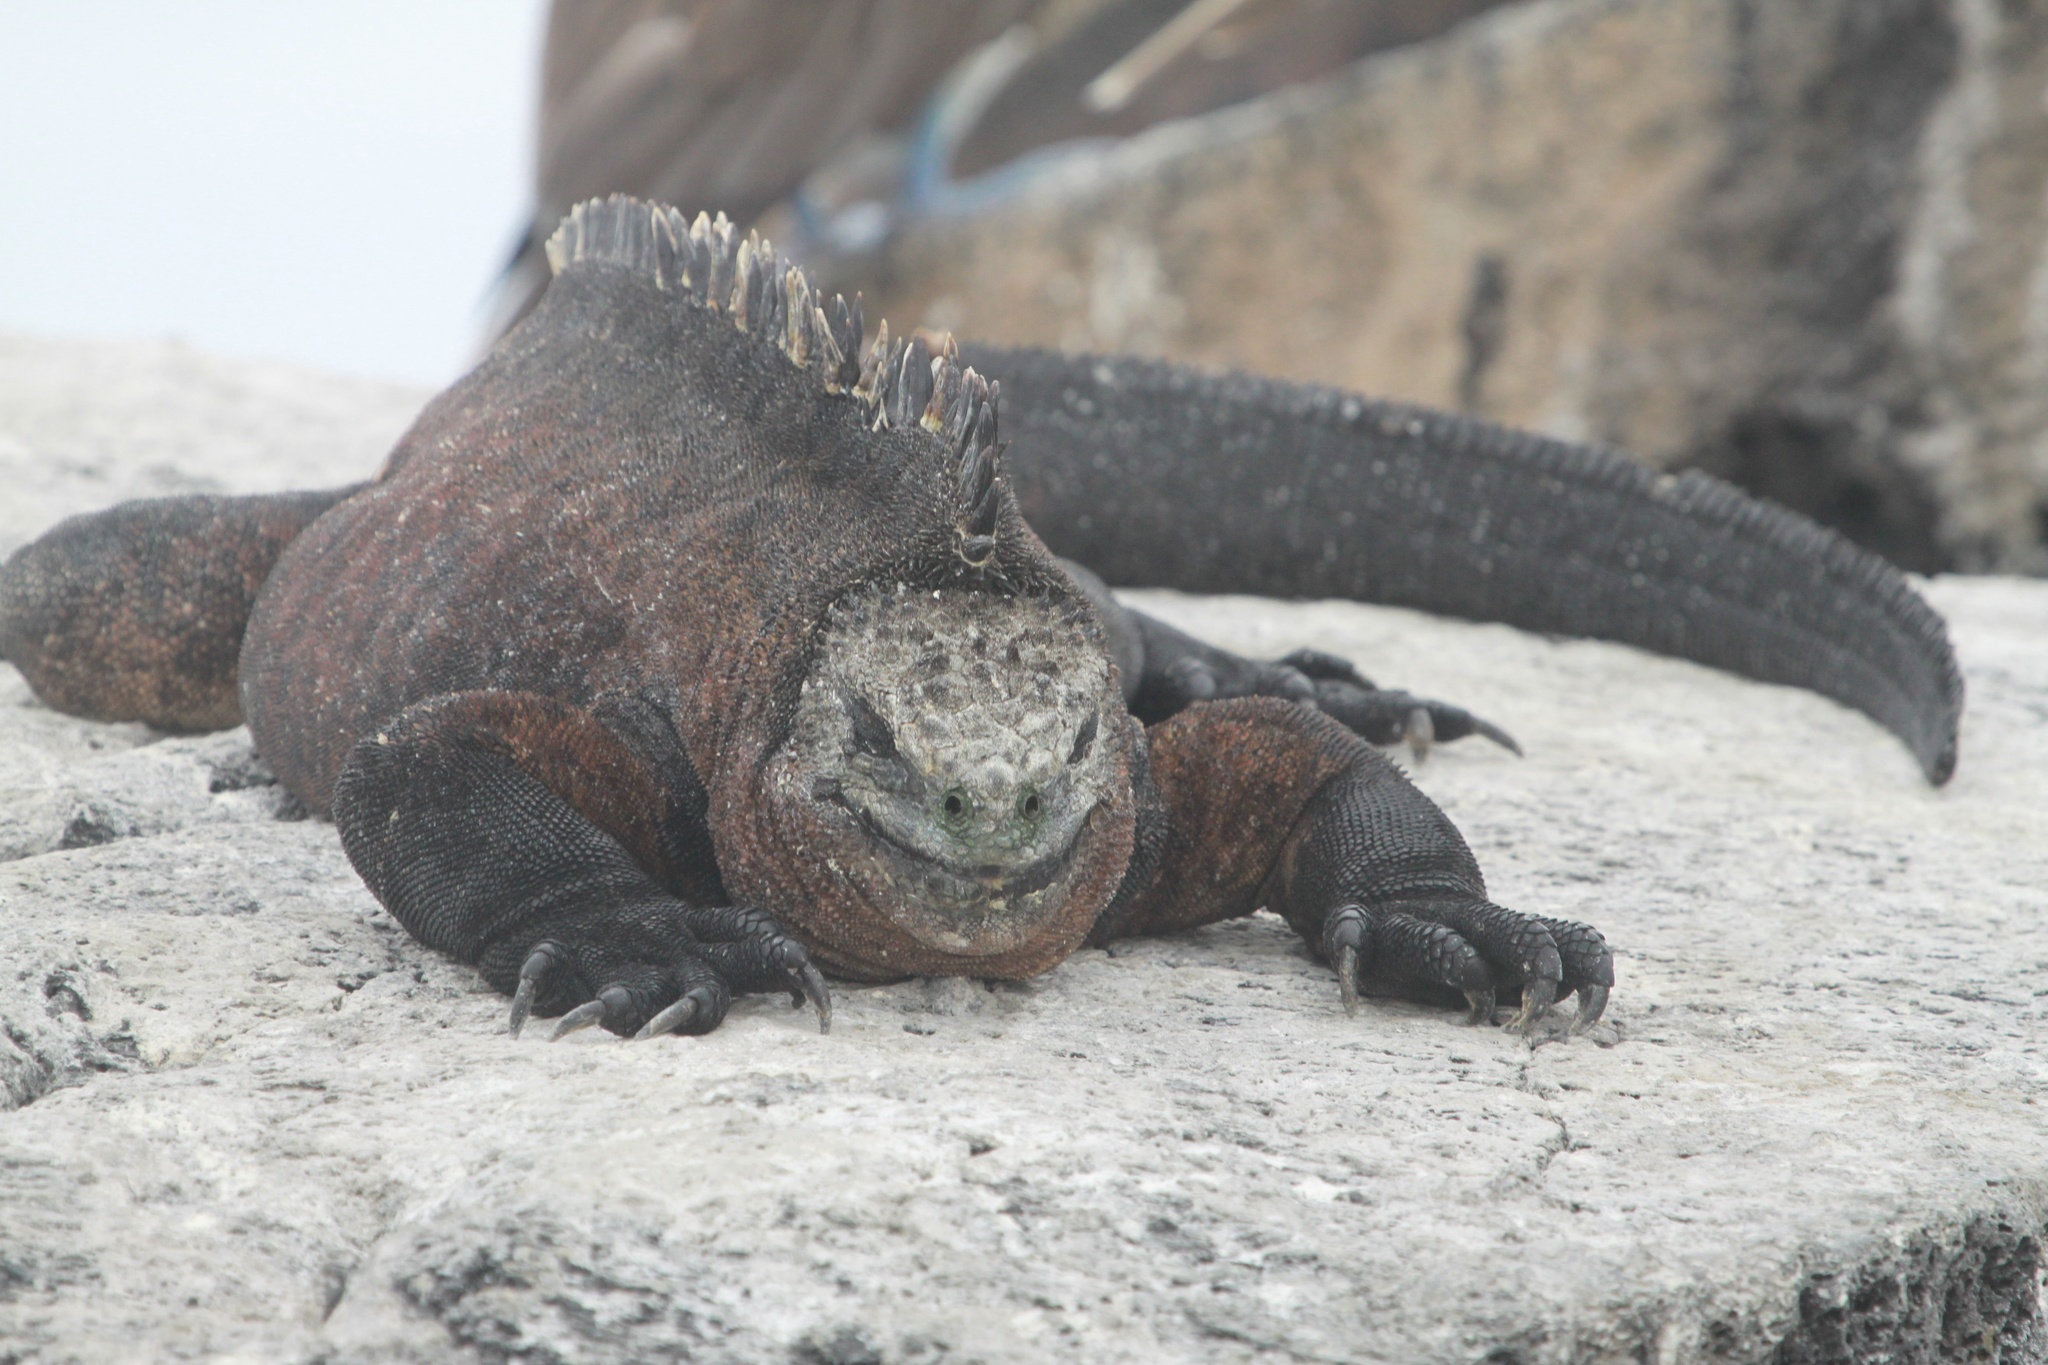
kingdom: Animalia
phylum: Chordata
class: Squamata
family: Iguanidae
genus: Amblyrhynchus
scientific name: Amblyrhynchus cristatus
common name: Marine iguana
